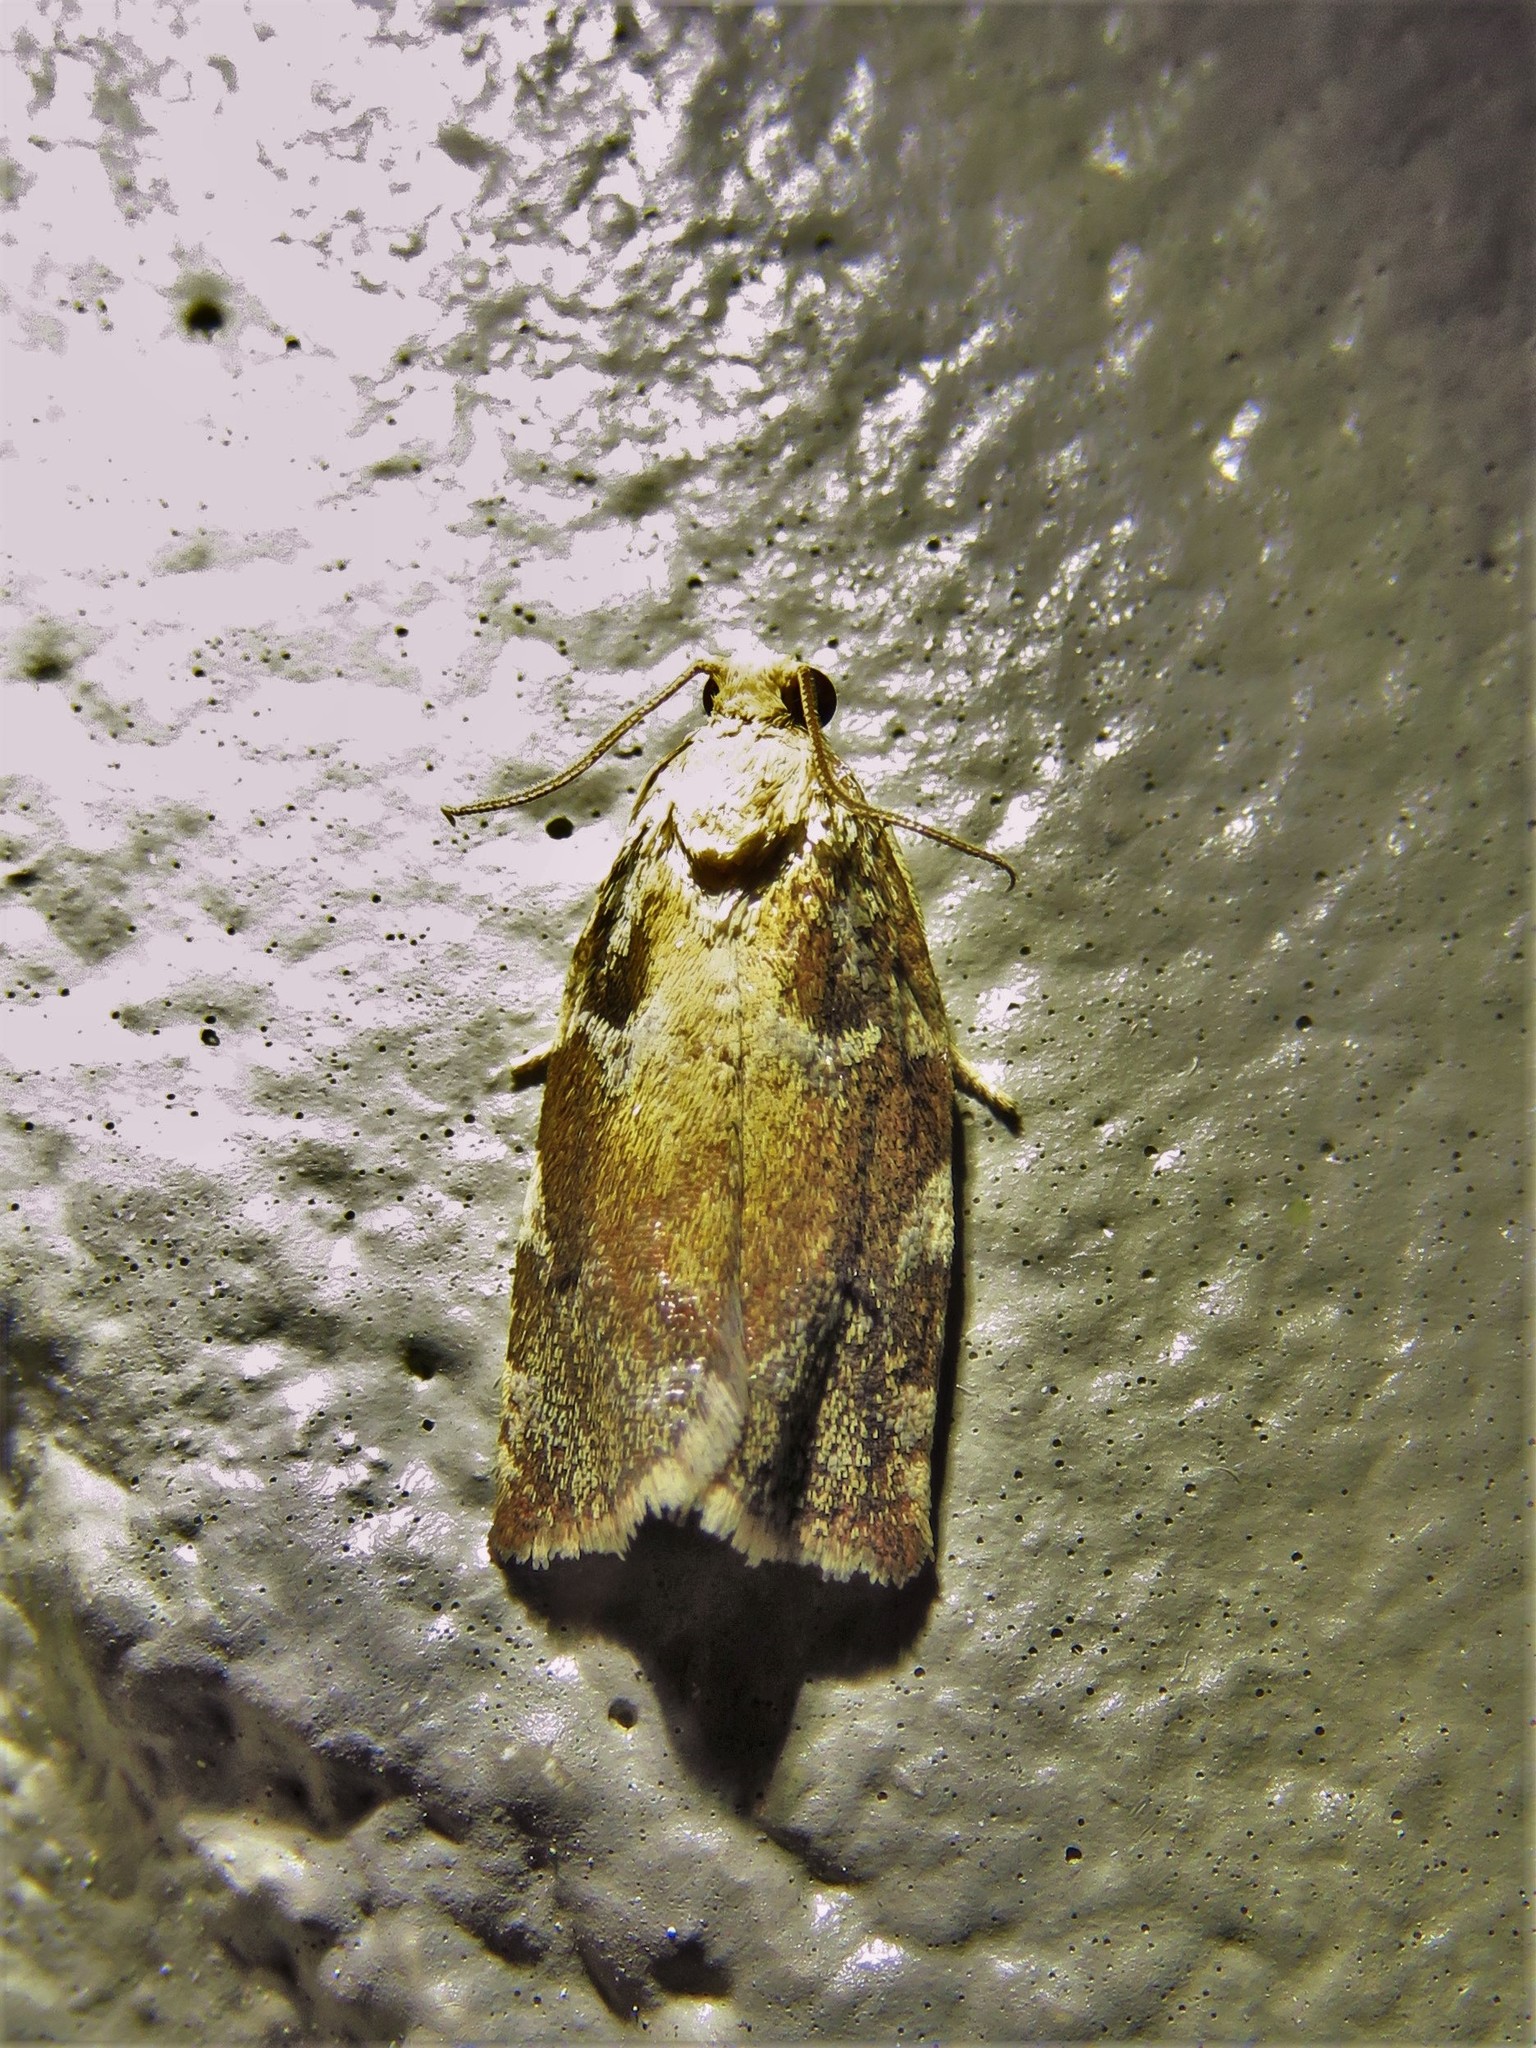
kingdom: Animalia
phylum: Arthropoda
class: Insecta
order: Lepidoptera
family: Tortricidae
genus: Archips
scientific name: Archips semiferanus
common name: Oak leafroller
